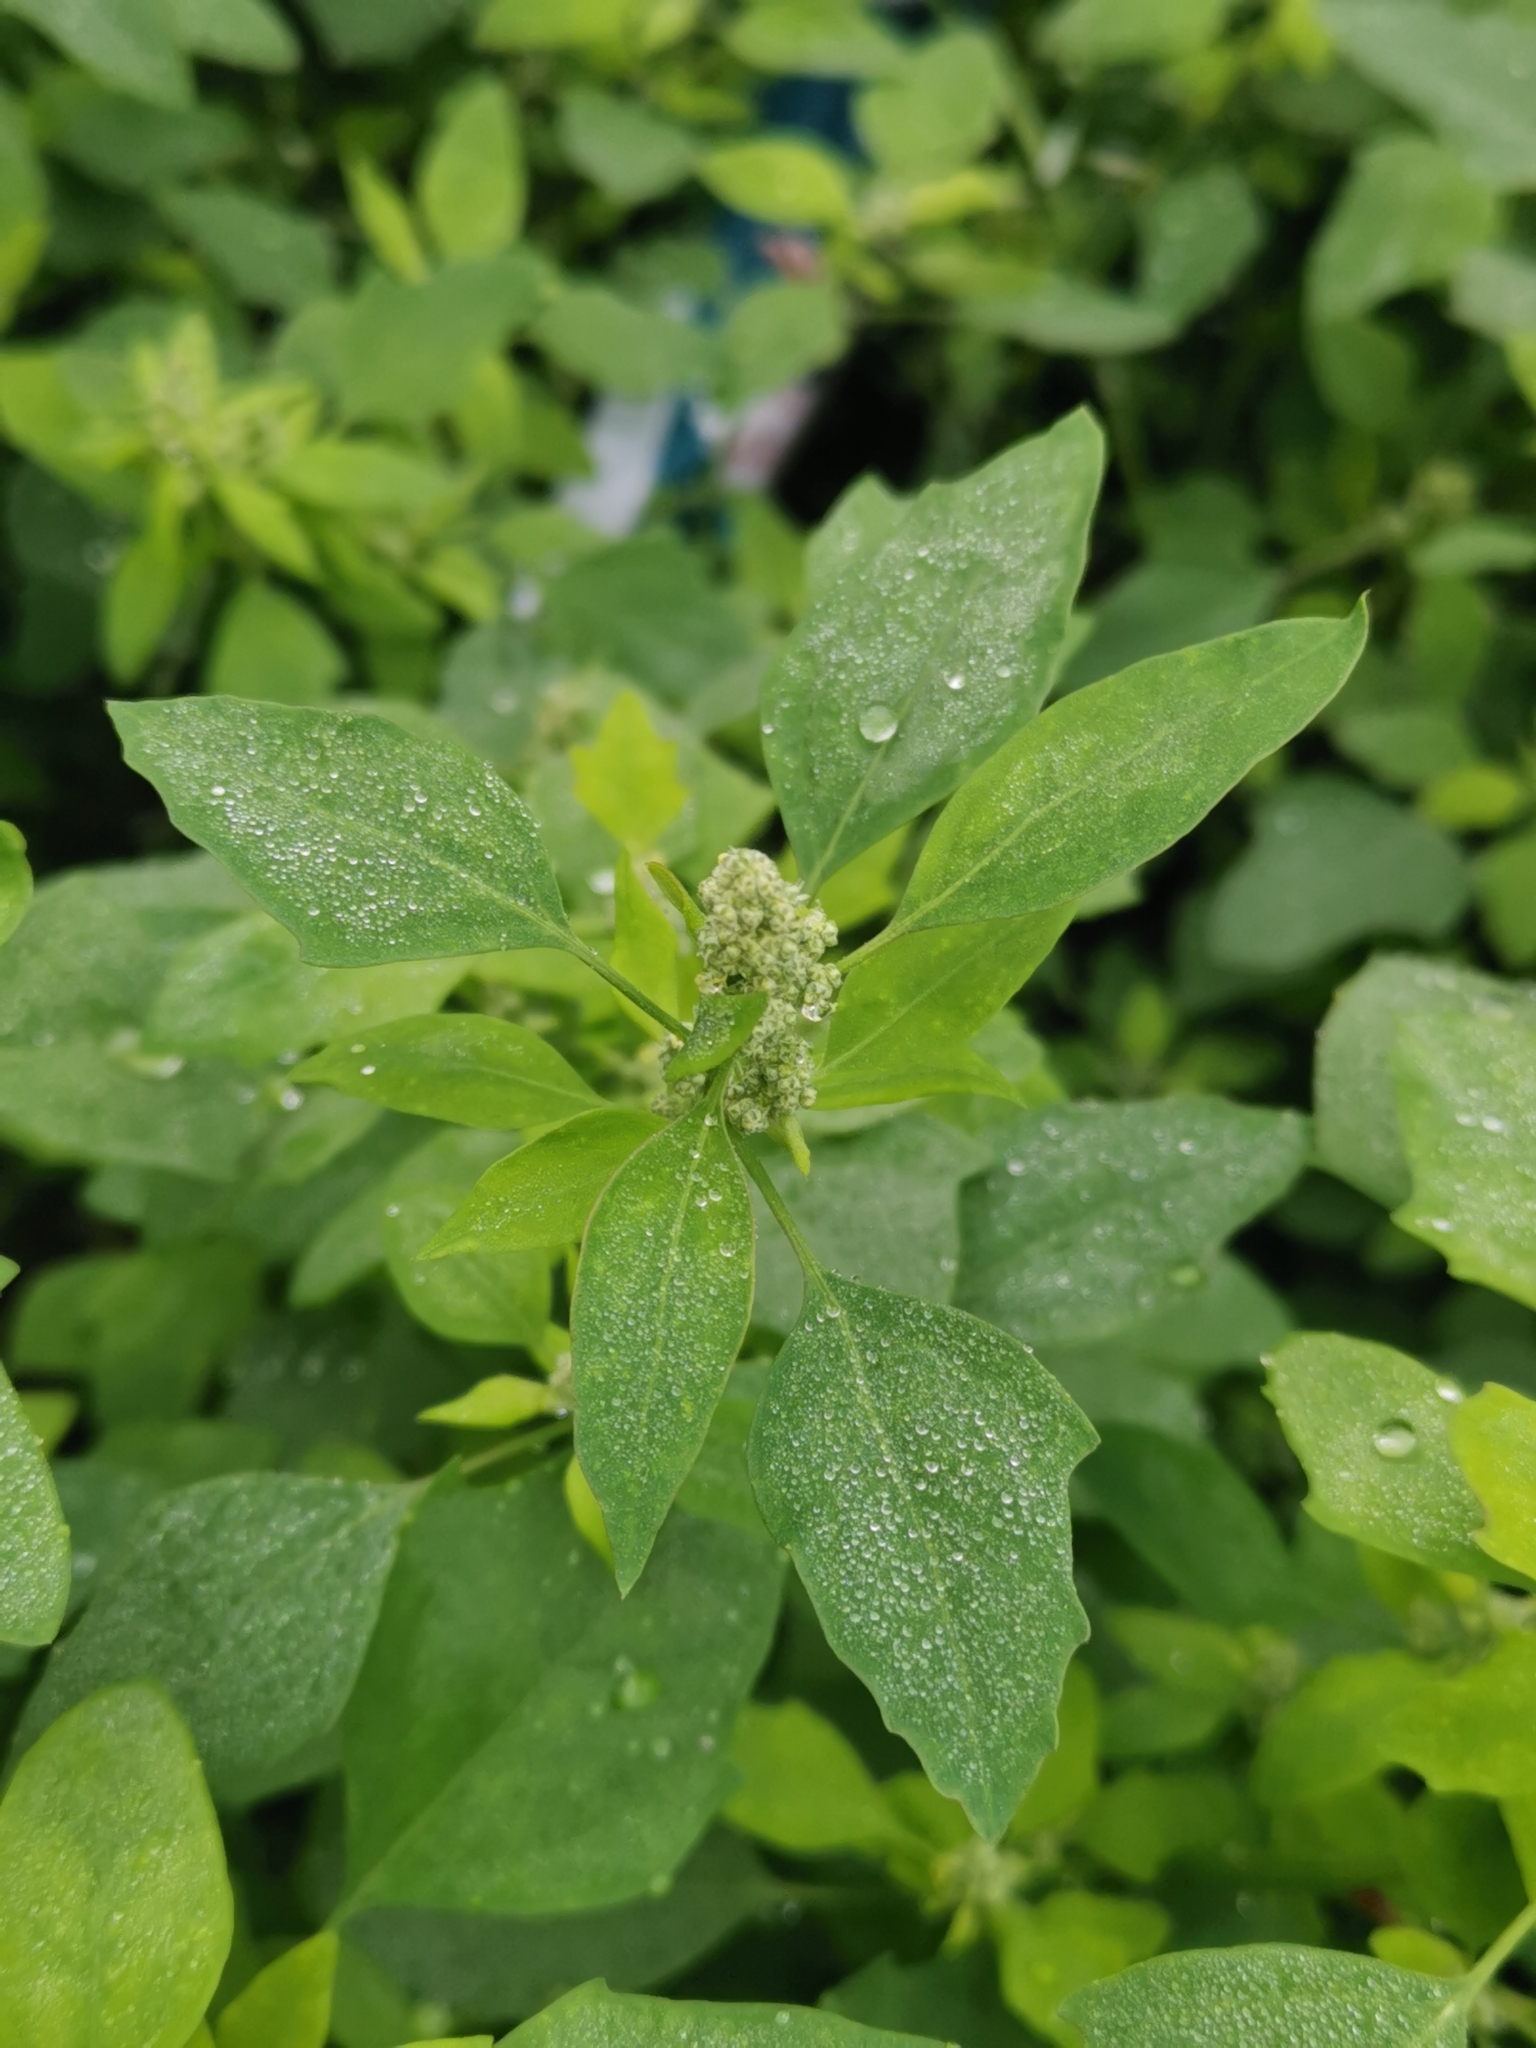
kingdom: Plantae
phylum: Tracheophyta
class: Magnoliopsida
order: Caryophyllales
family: Amaranthaceae
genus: Chenopodium
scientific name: Chenopodium album
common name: Fat-hen
